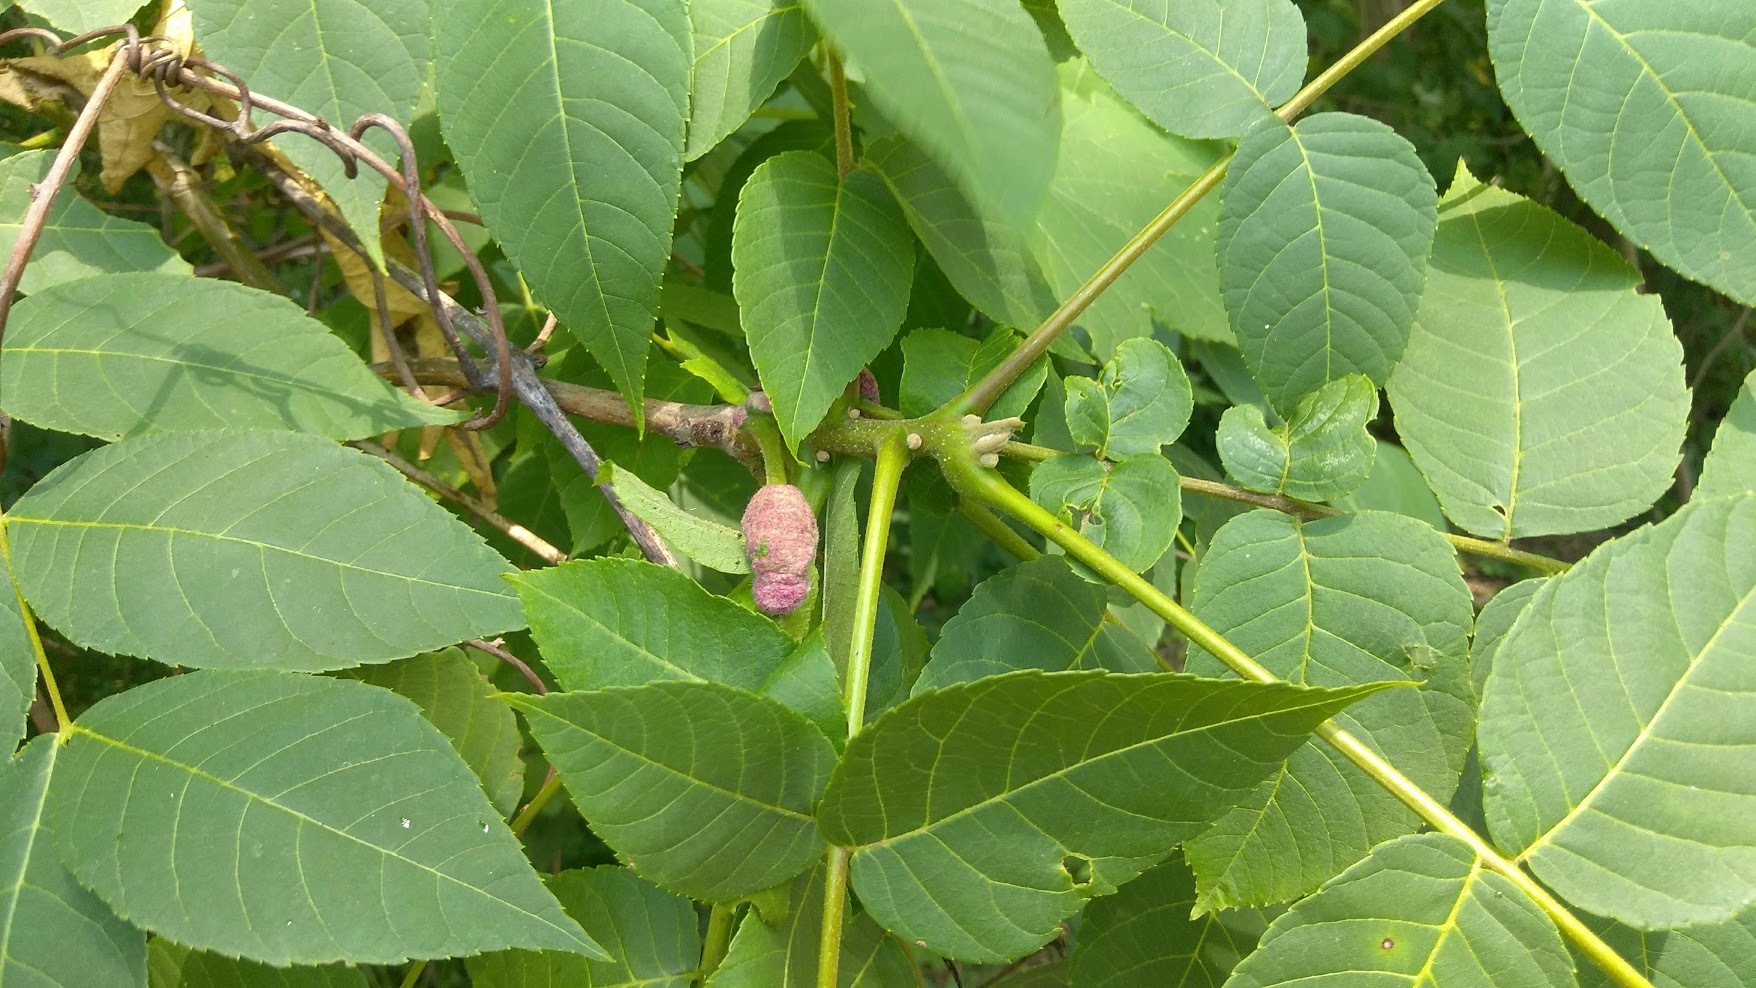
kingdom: Animalia
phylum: Arthropoda
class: Arachnida
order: Trombidiformes
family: Eriophyidae
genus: Aceria
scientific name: Aceria
